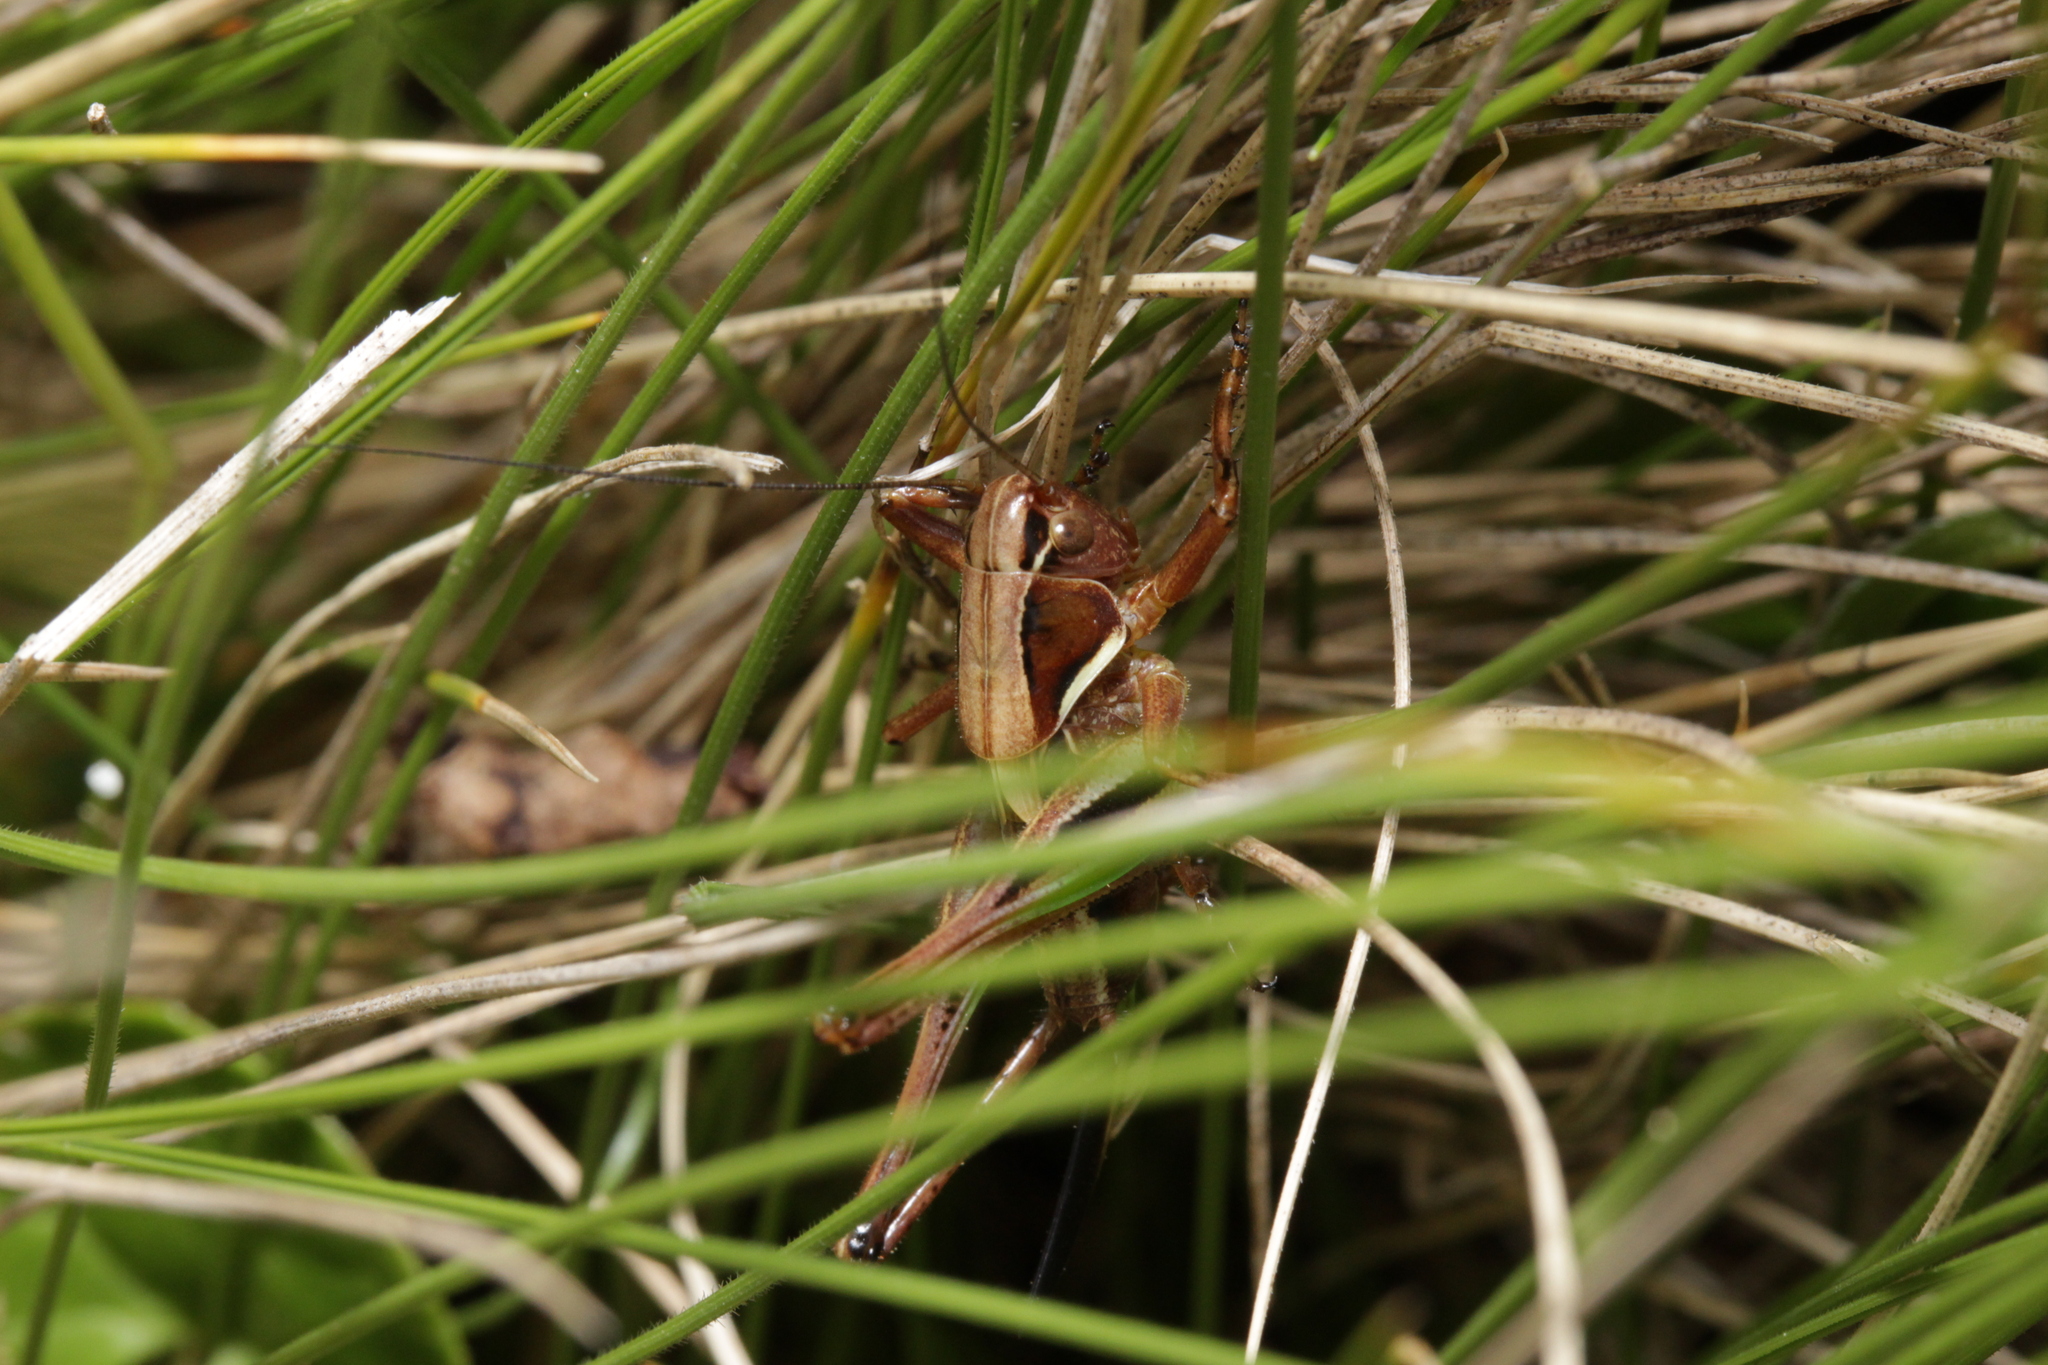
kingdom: Animalia
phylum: Arthropoda
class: Insecta
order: Orthoptera
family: Tettigoniidae
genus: Metrioptera
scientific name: Metrioptera brachyptera
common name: Bog bush-cricket
